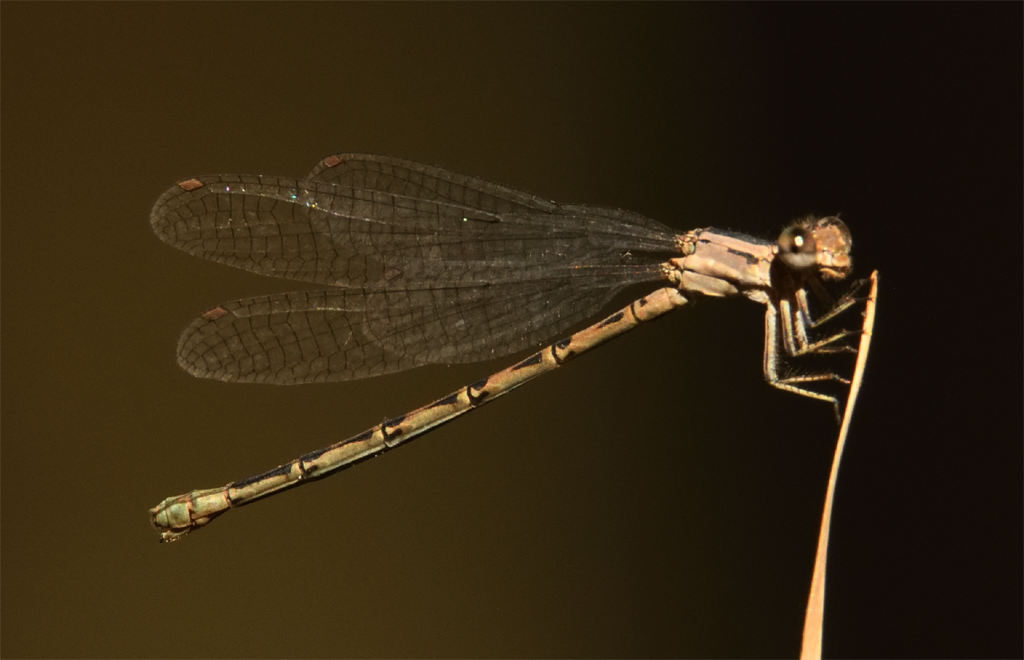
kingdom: Animalia
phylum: Arthropoda
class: Insecta
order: Odonata
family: Coenagrionidae
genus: Argia
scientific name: Argia vivida
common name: Vivid dancer
